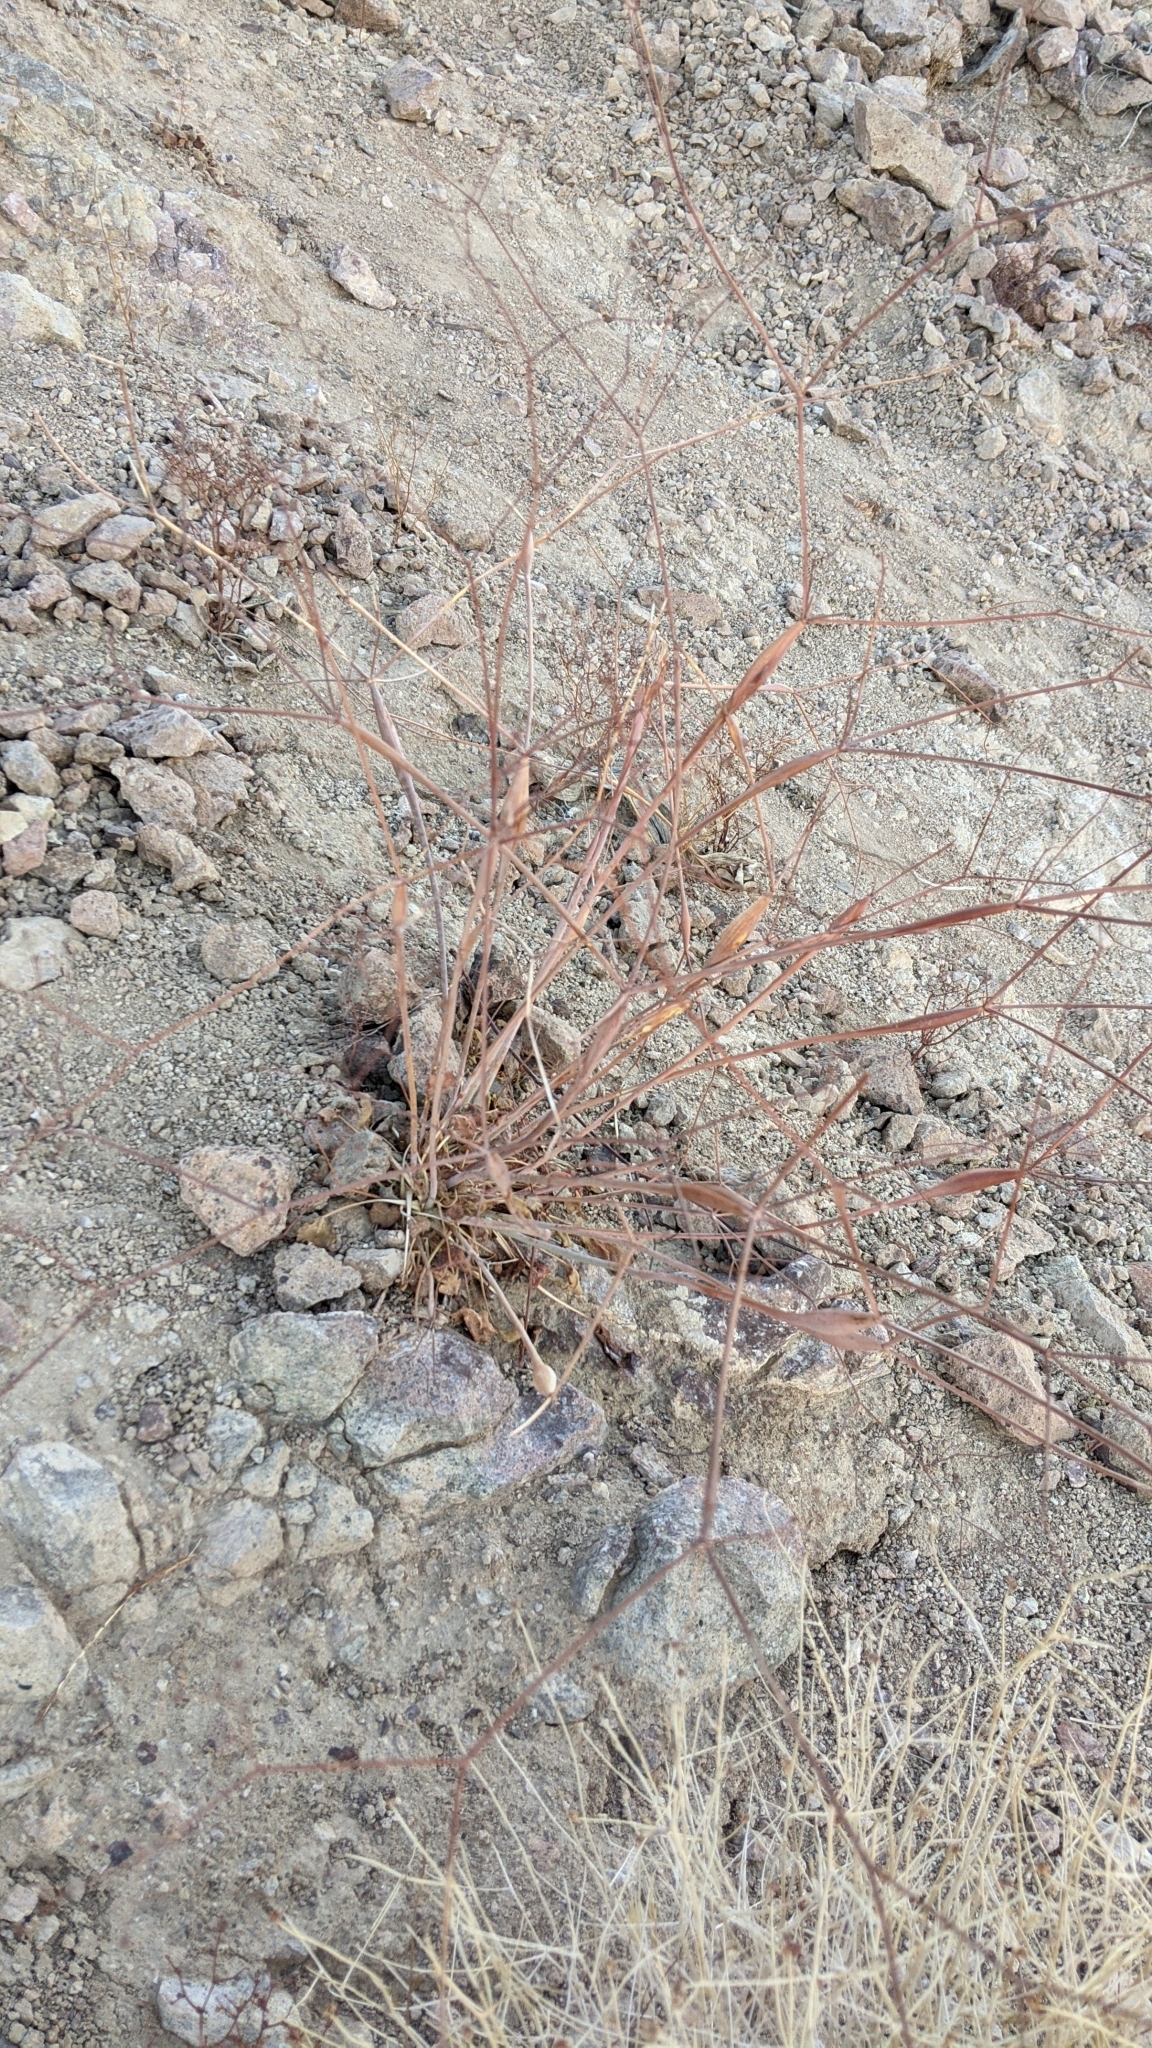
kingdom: Plantae
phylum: Tracheophyta
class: Magnoliopsida
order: Caryophyllales
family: Polygonaceae
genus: Eriogonum
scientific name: Eriogonum inflatum
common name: Desert trumpet
